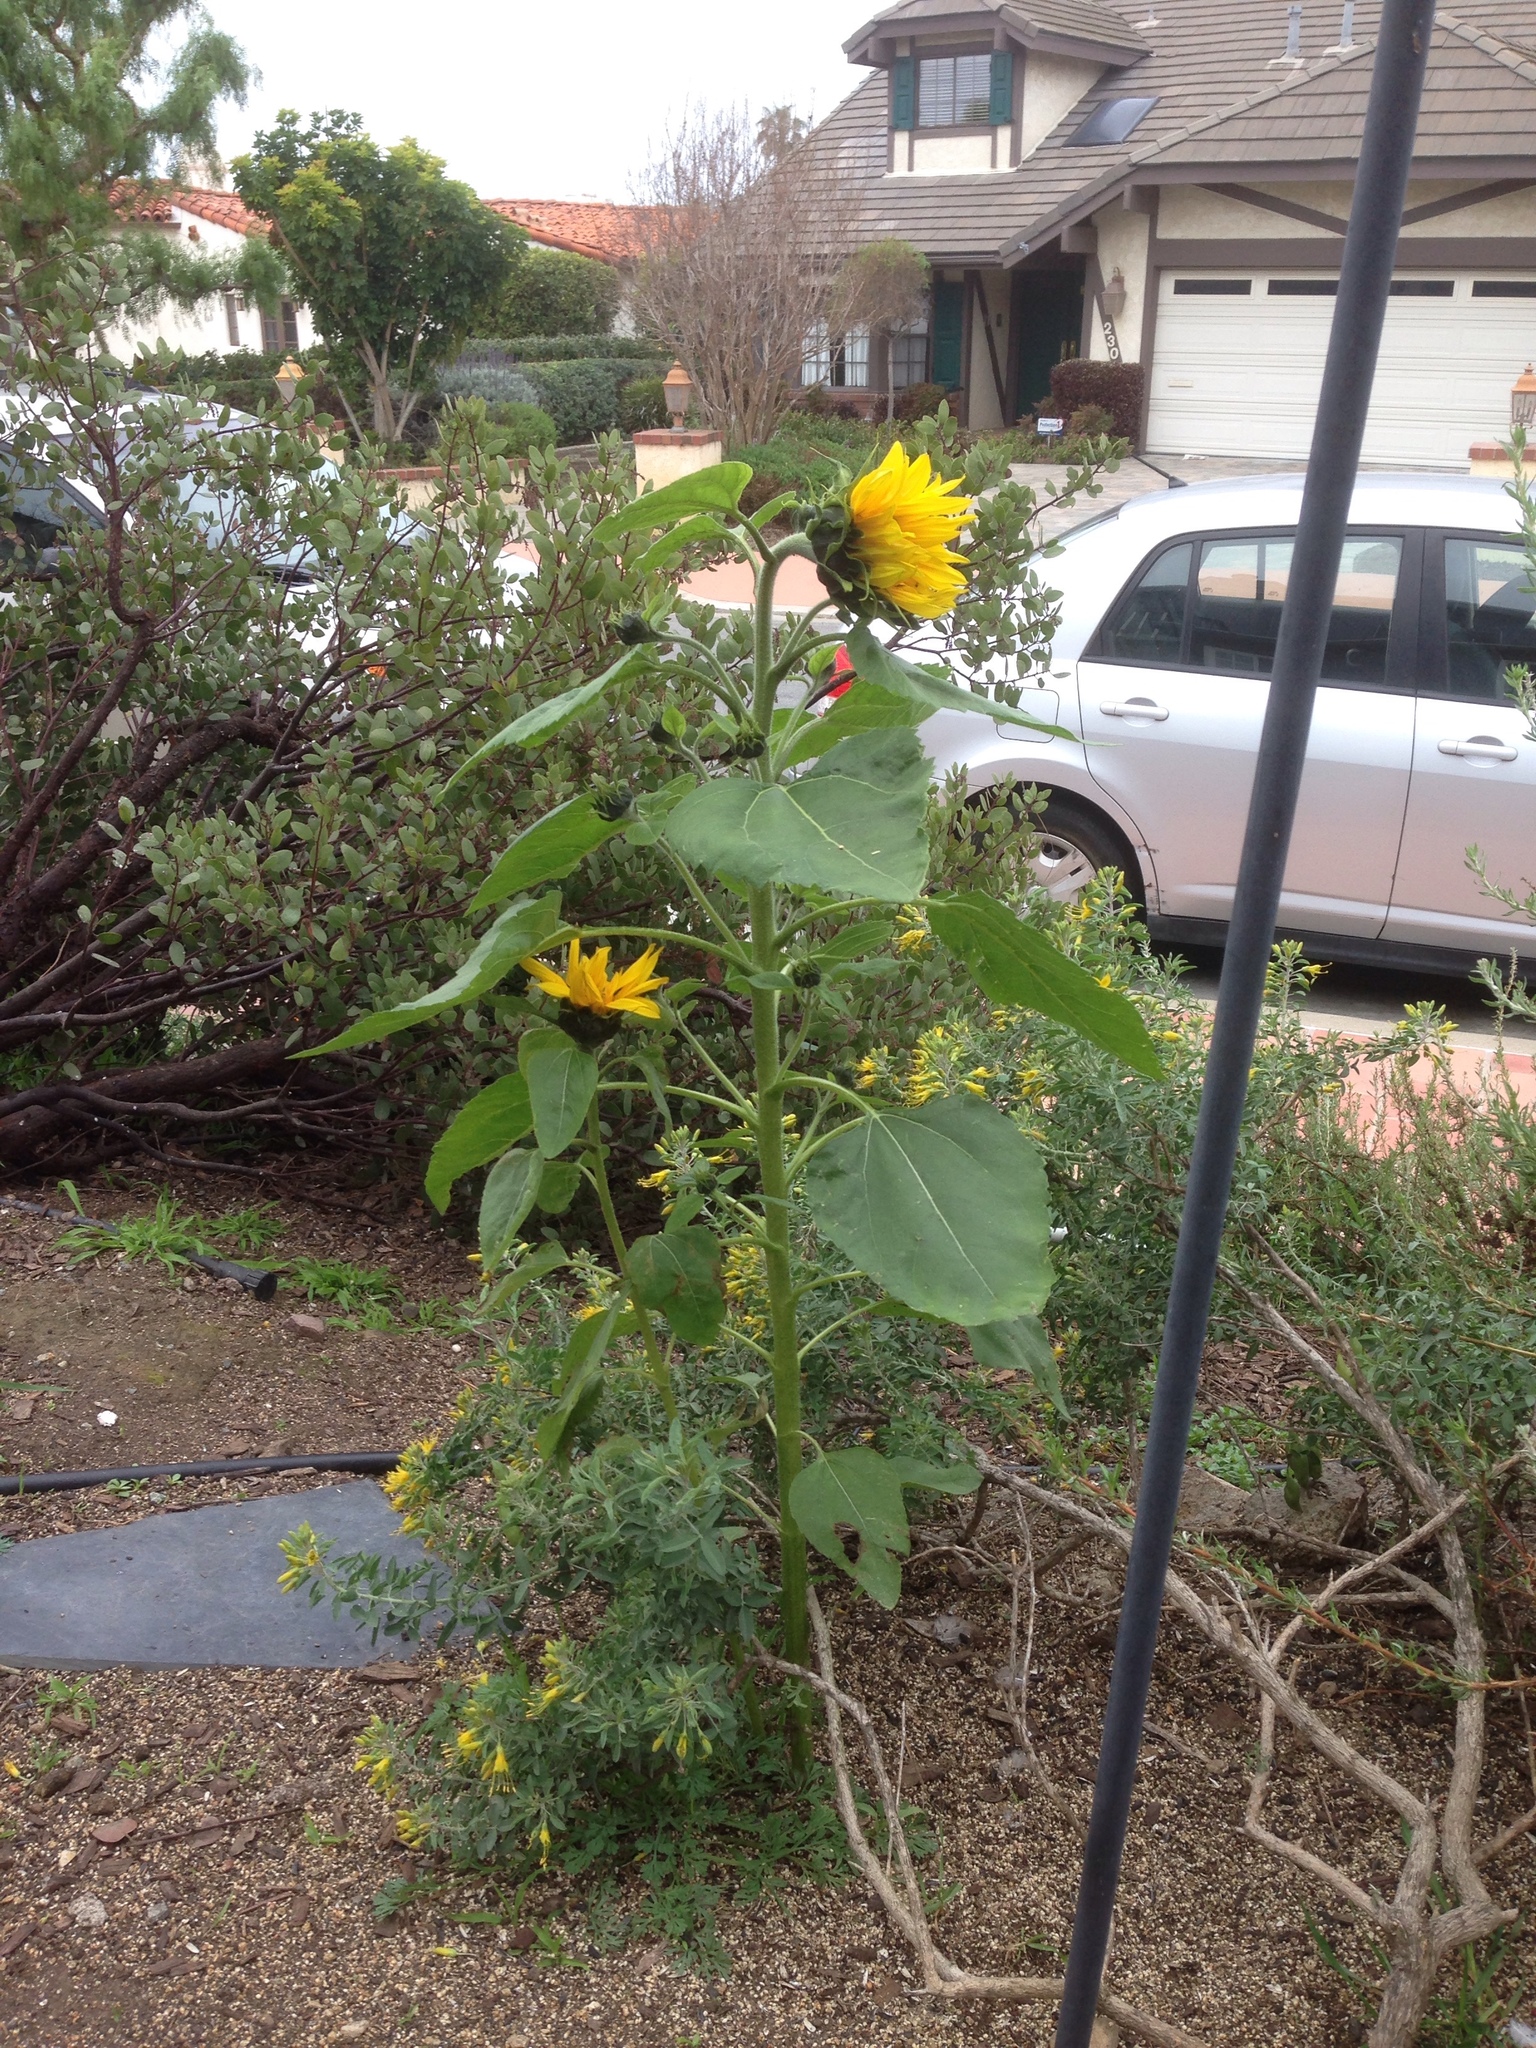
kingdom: Plantae
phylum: Tracheophyta
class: Magnoliopsida
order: Asterales
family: Asteraceae
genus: Helianthus
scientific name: Helianthus annuus
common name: Sunflower
